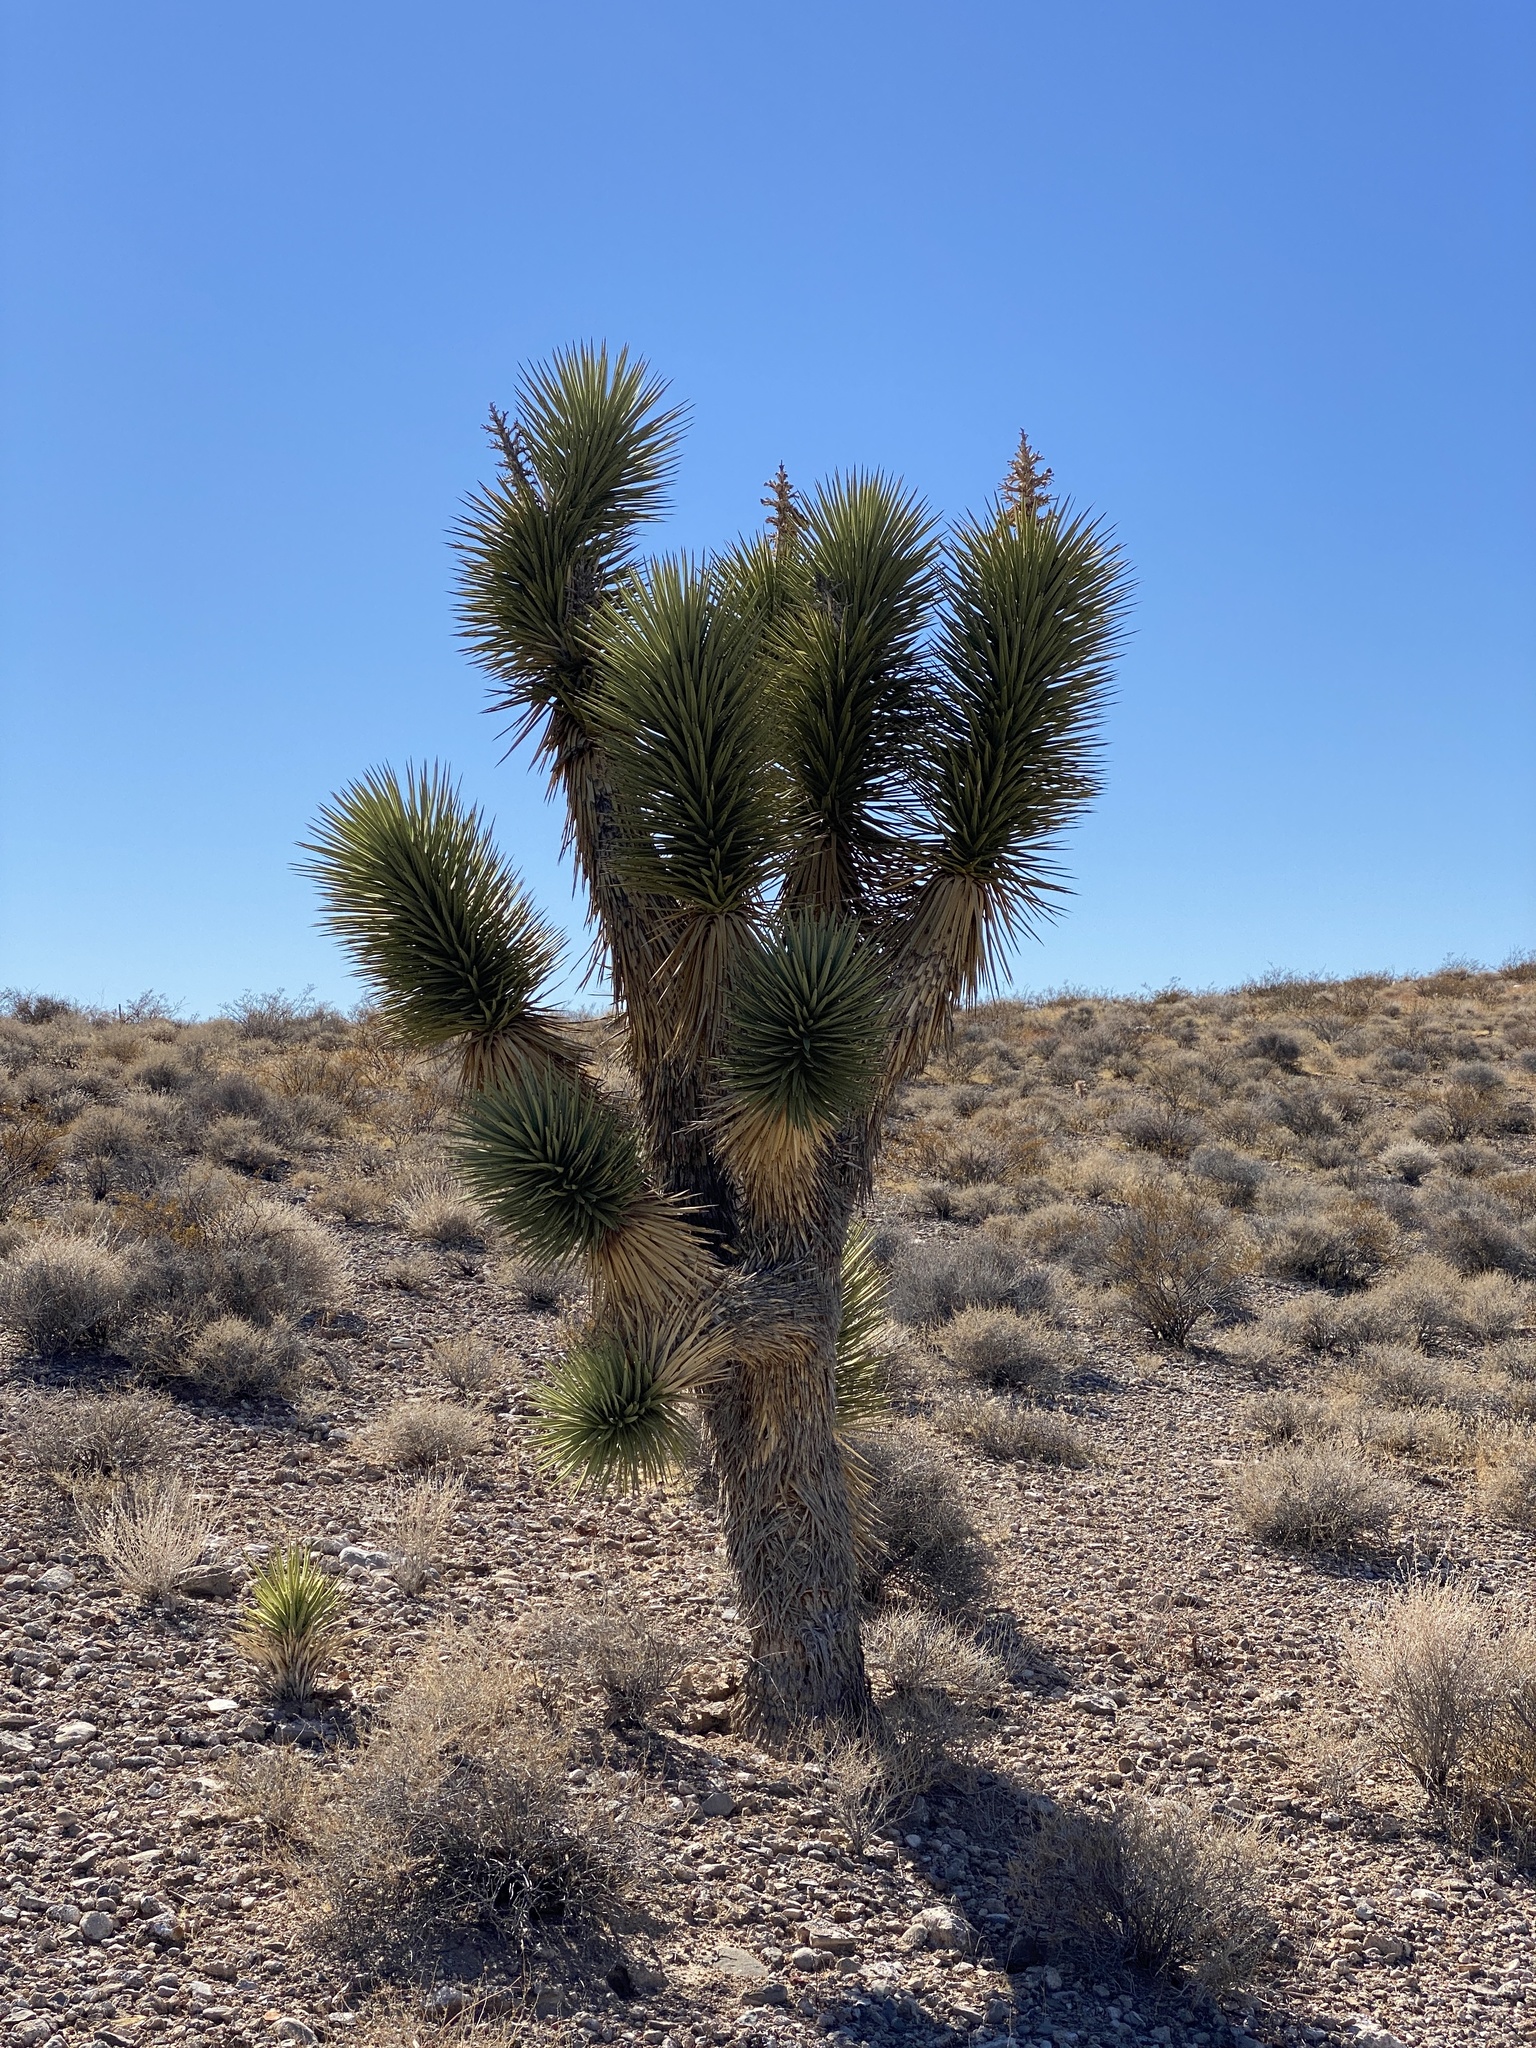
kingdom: Plantae
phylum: Tracheophyta
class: Liliopsida
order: Asparagales
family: Asparagaceae
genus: Yucca
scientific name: Yucca brevifolia
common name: Joshua tree
